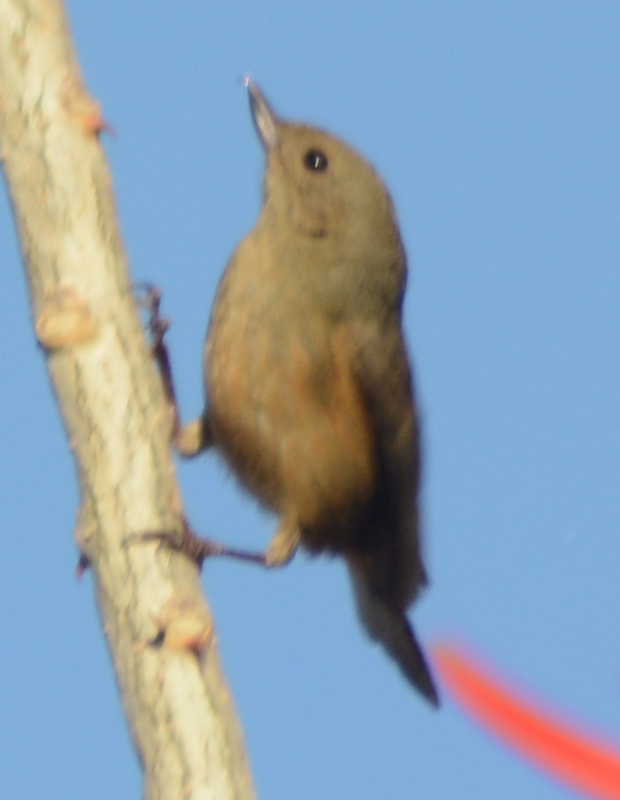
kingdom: Animalia
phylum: Chordata
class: Aves
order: Passeriformes
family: Thraupidae
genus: Diglossa
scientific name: Diglossa baritula
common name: Cinnamon-bellied flowerpiercer
